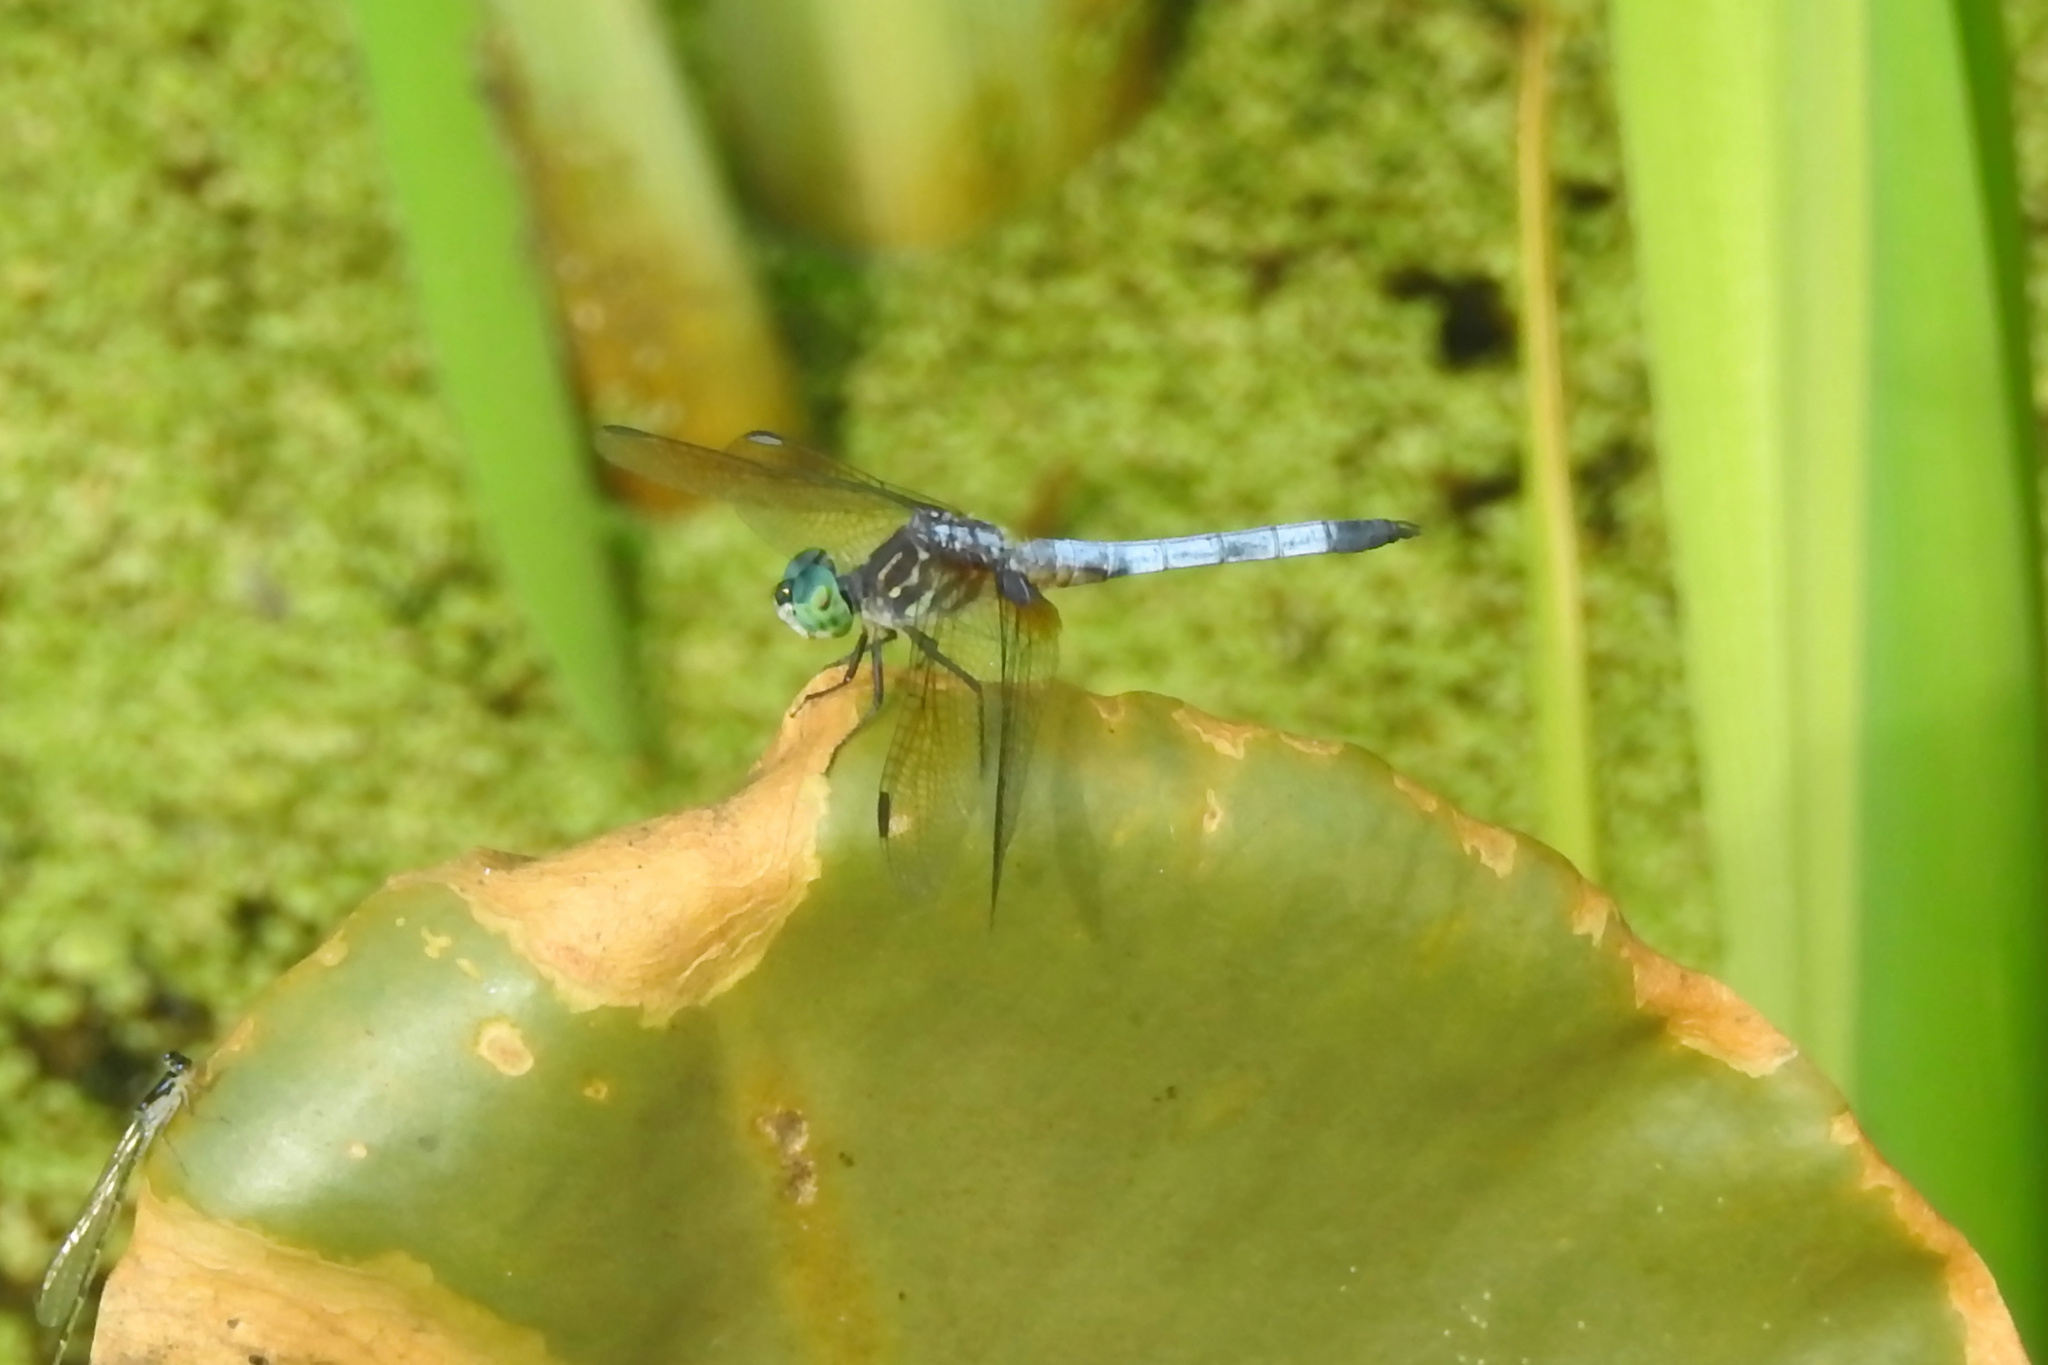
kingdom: Animalia
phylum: Arthropoda
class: Insecta
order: Odonata
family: Libellulidae
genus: Pachydiplax
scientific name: Pachydiplax longipennis
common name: Blue dasher
